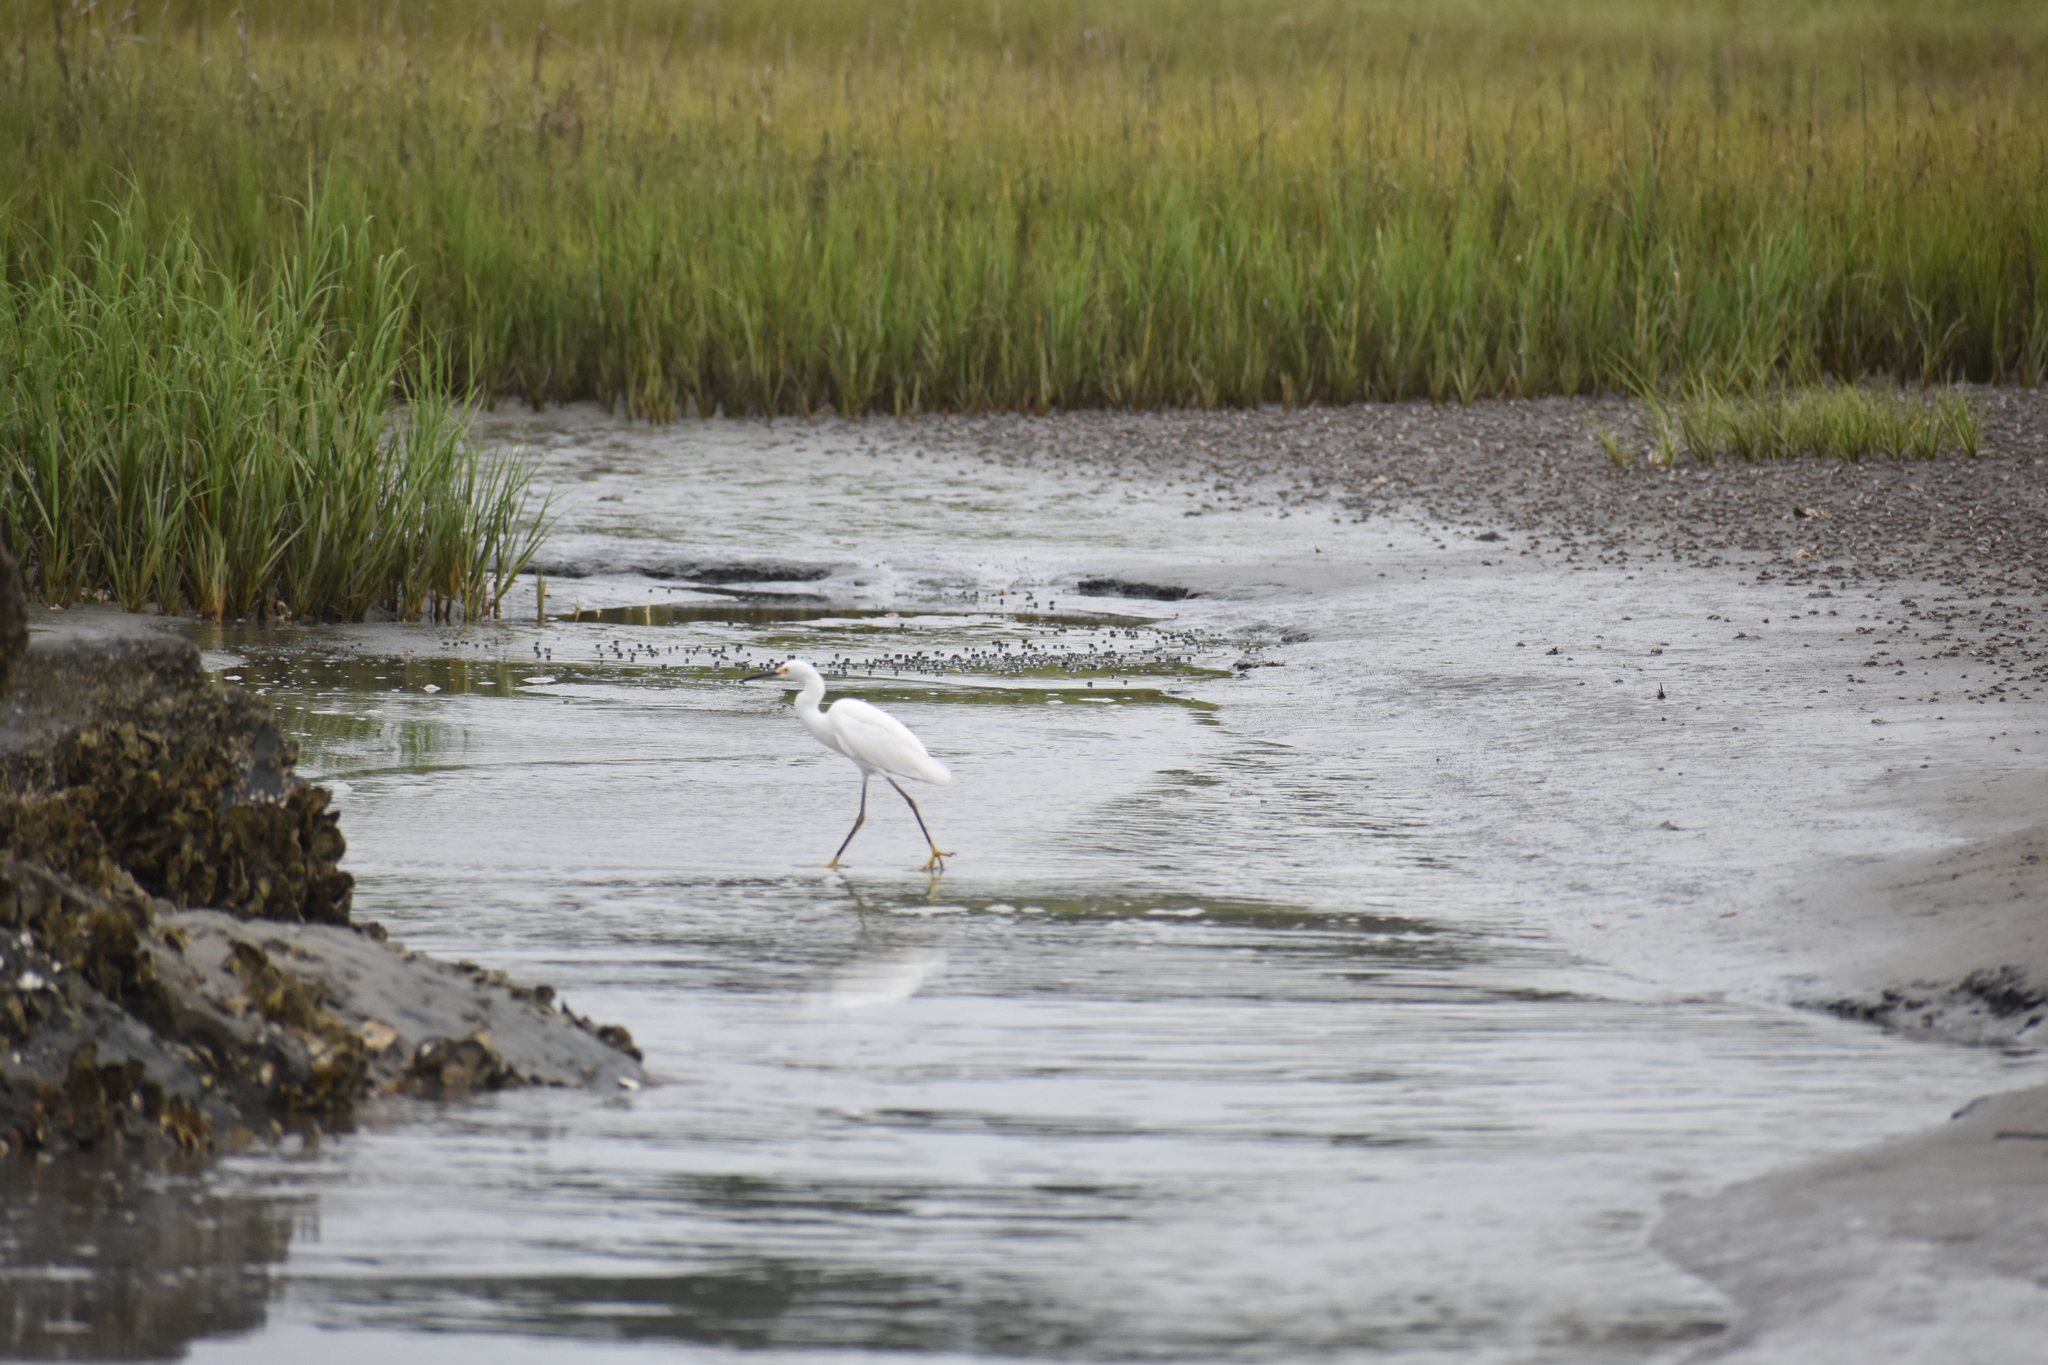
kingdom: Animalia
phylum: Chordata
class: Aves
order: Pelecaniformes
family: Ardeidae
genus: Egretta
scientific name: Egretta thula
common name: Snowy egret
